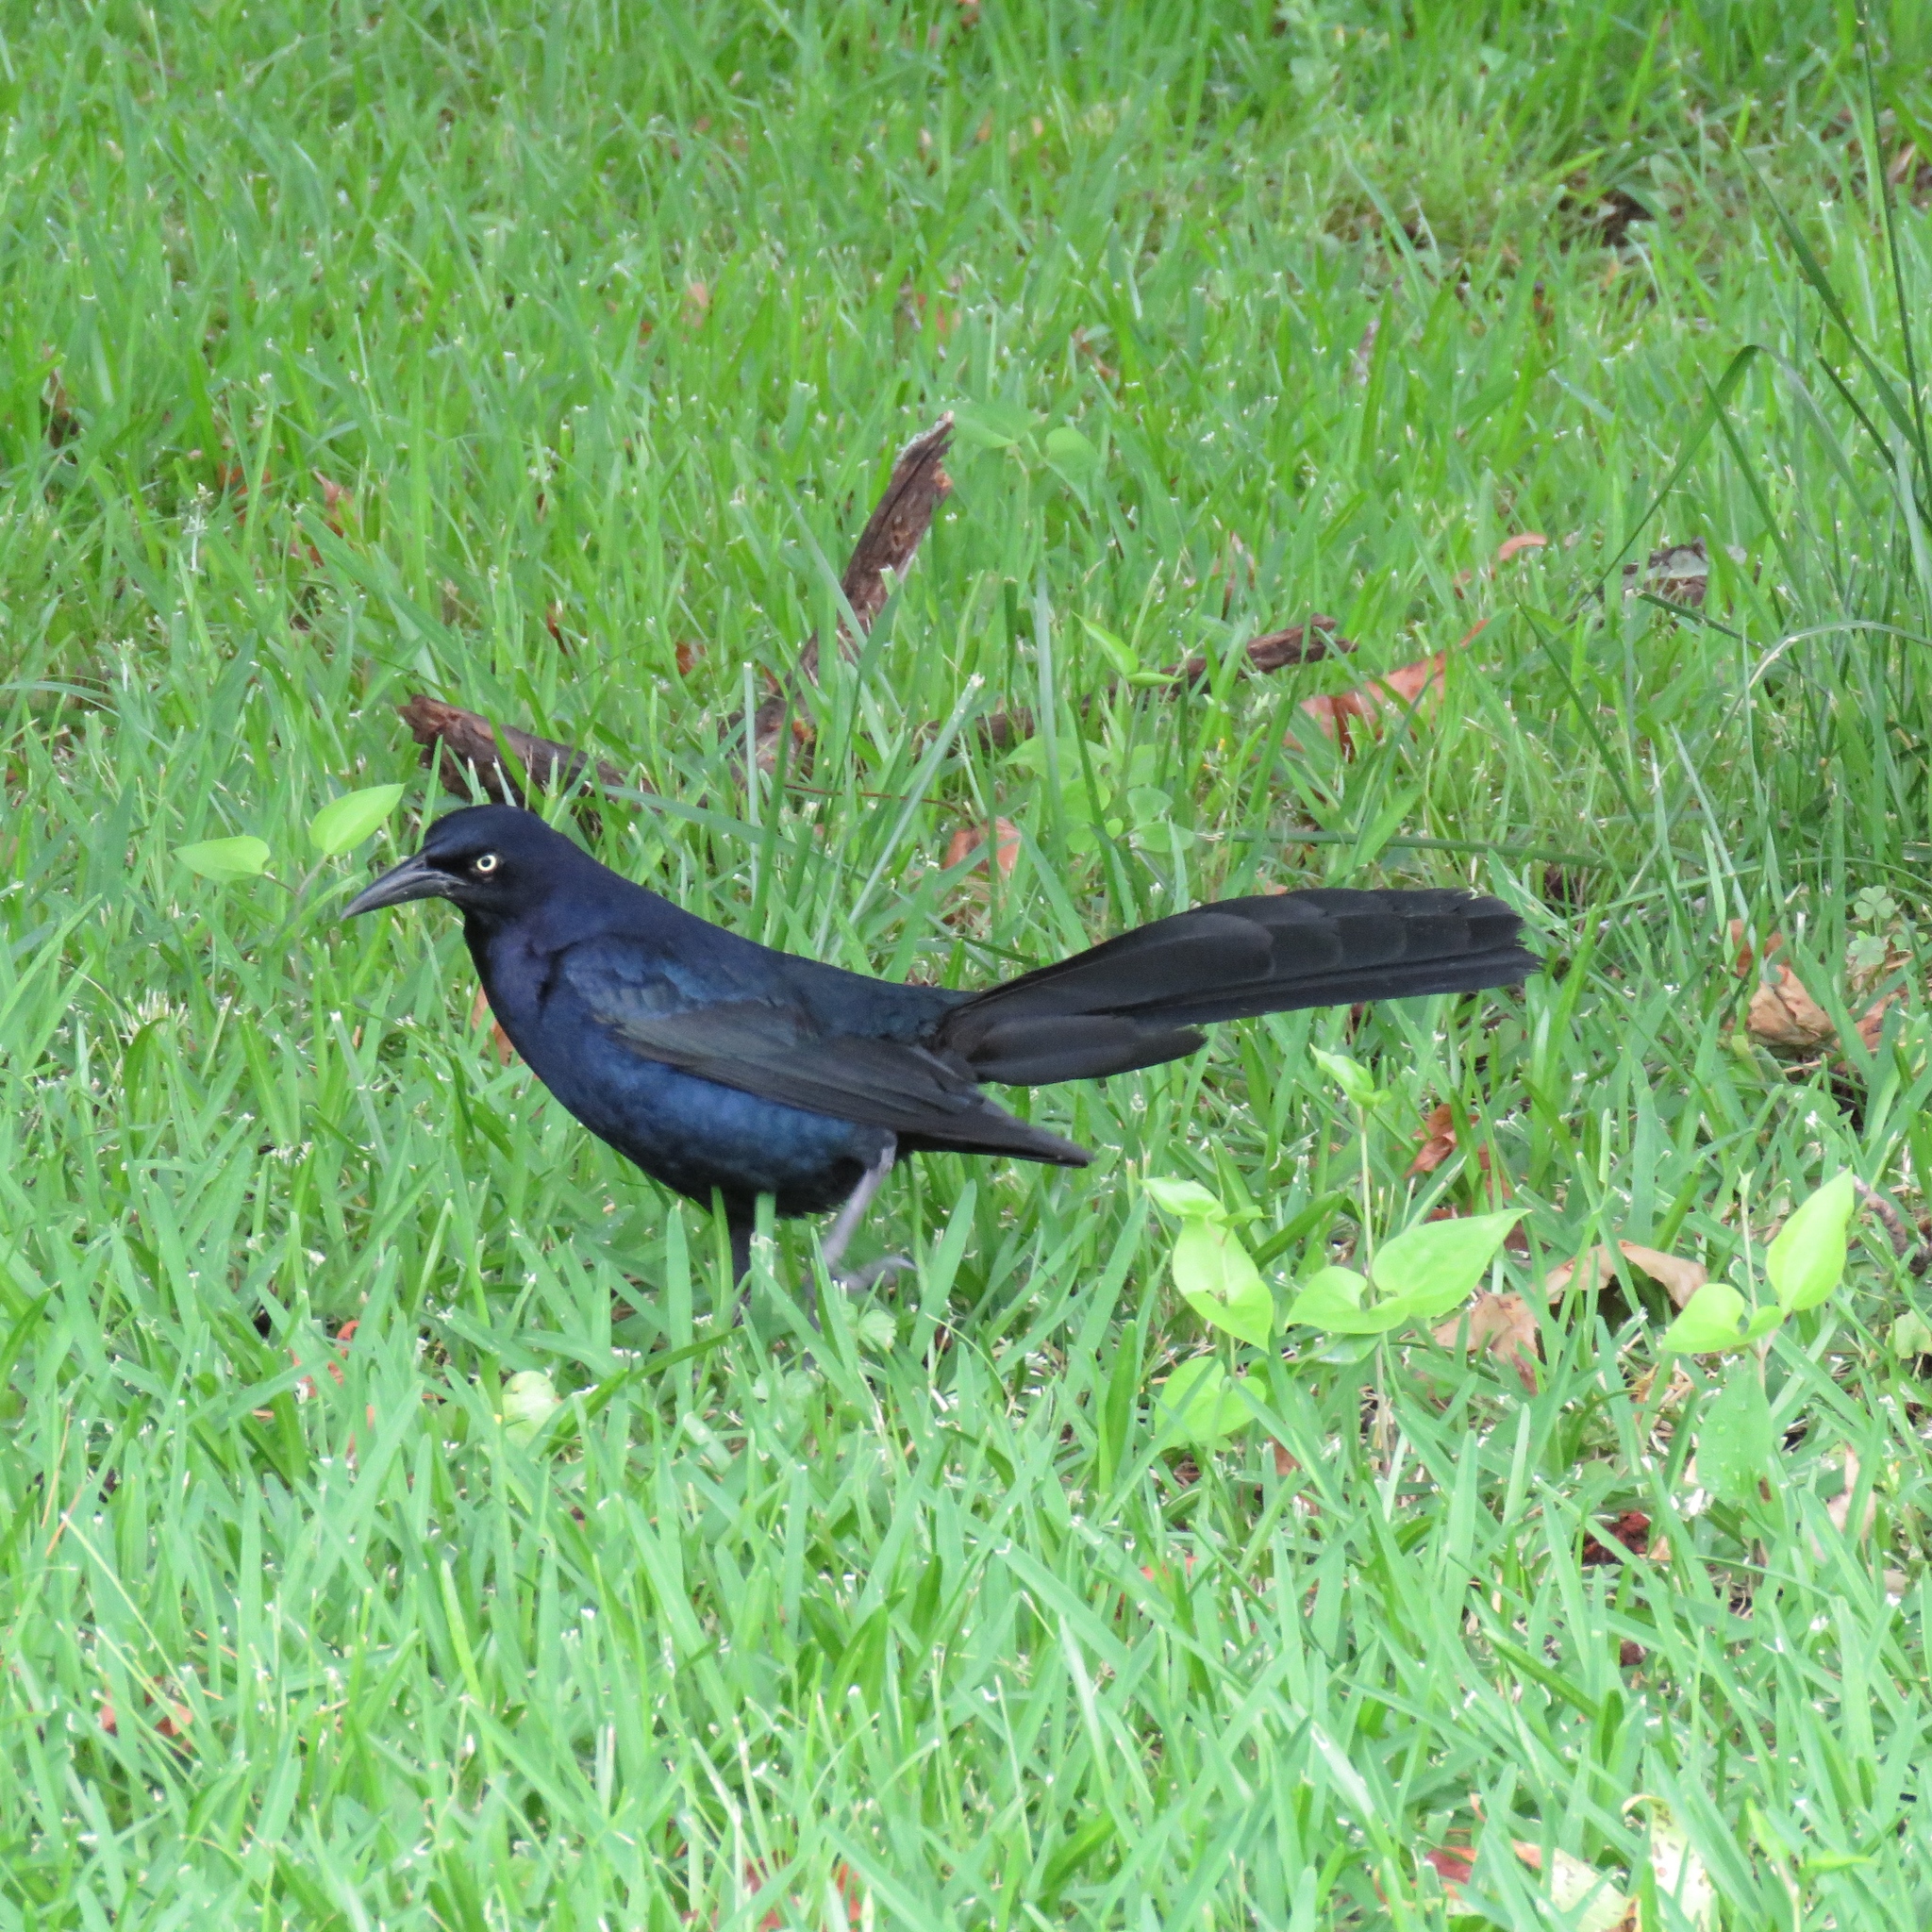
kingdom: Animalia
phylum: Chordata
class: Aves
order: Passeriformes
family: Icteridae
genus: Quiscalus
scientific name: Quiscalus mexicanus
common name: Great-tailed grackle
